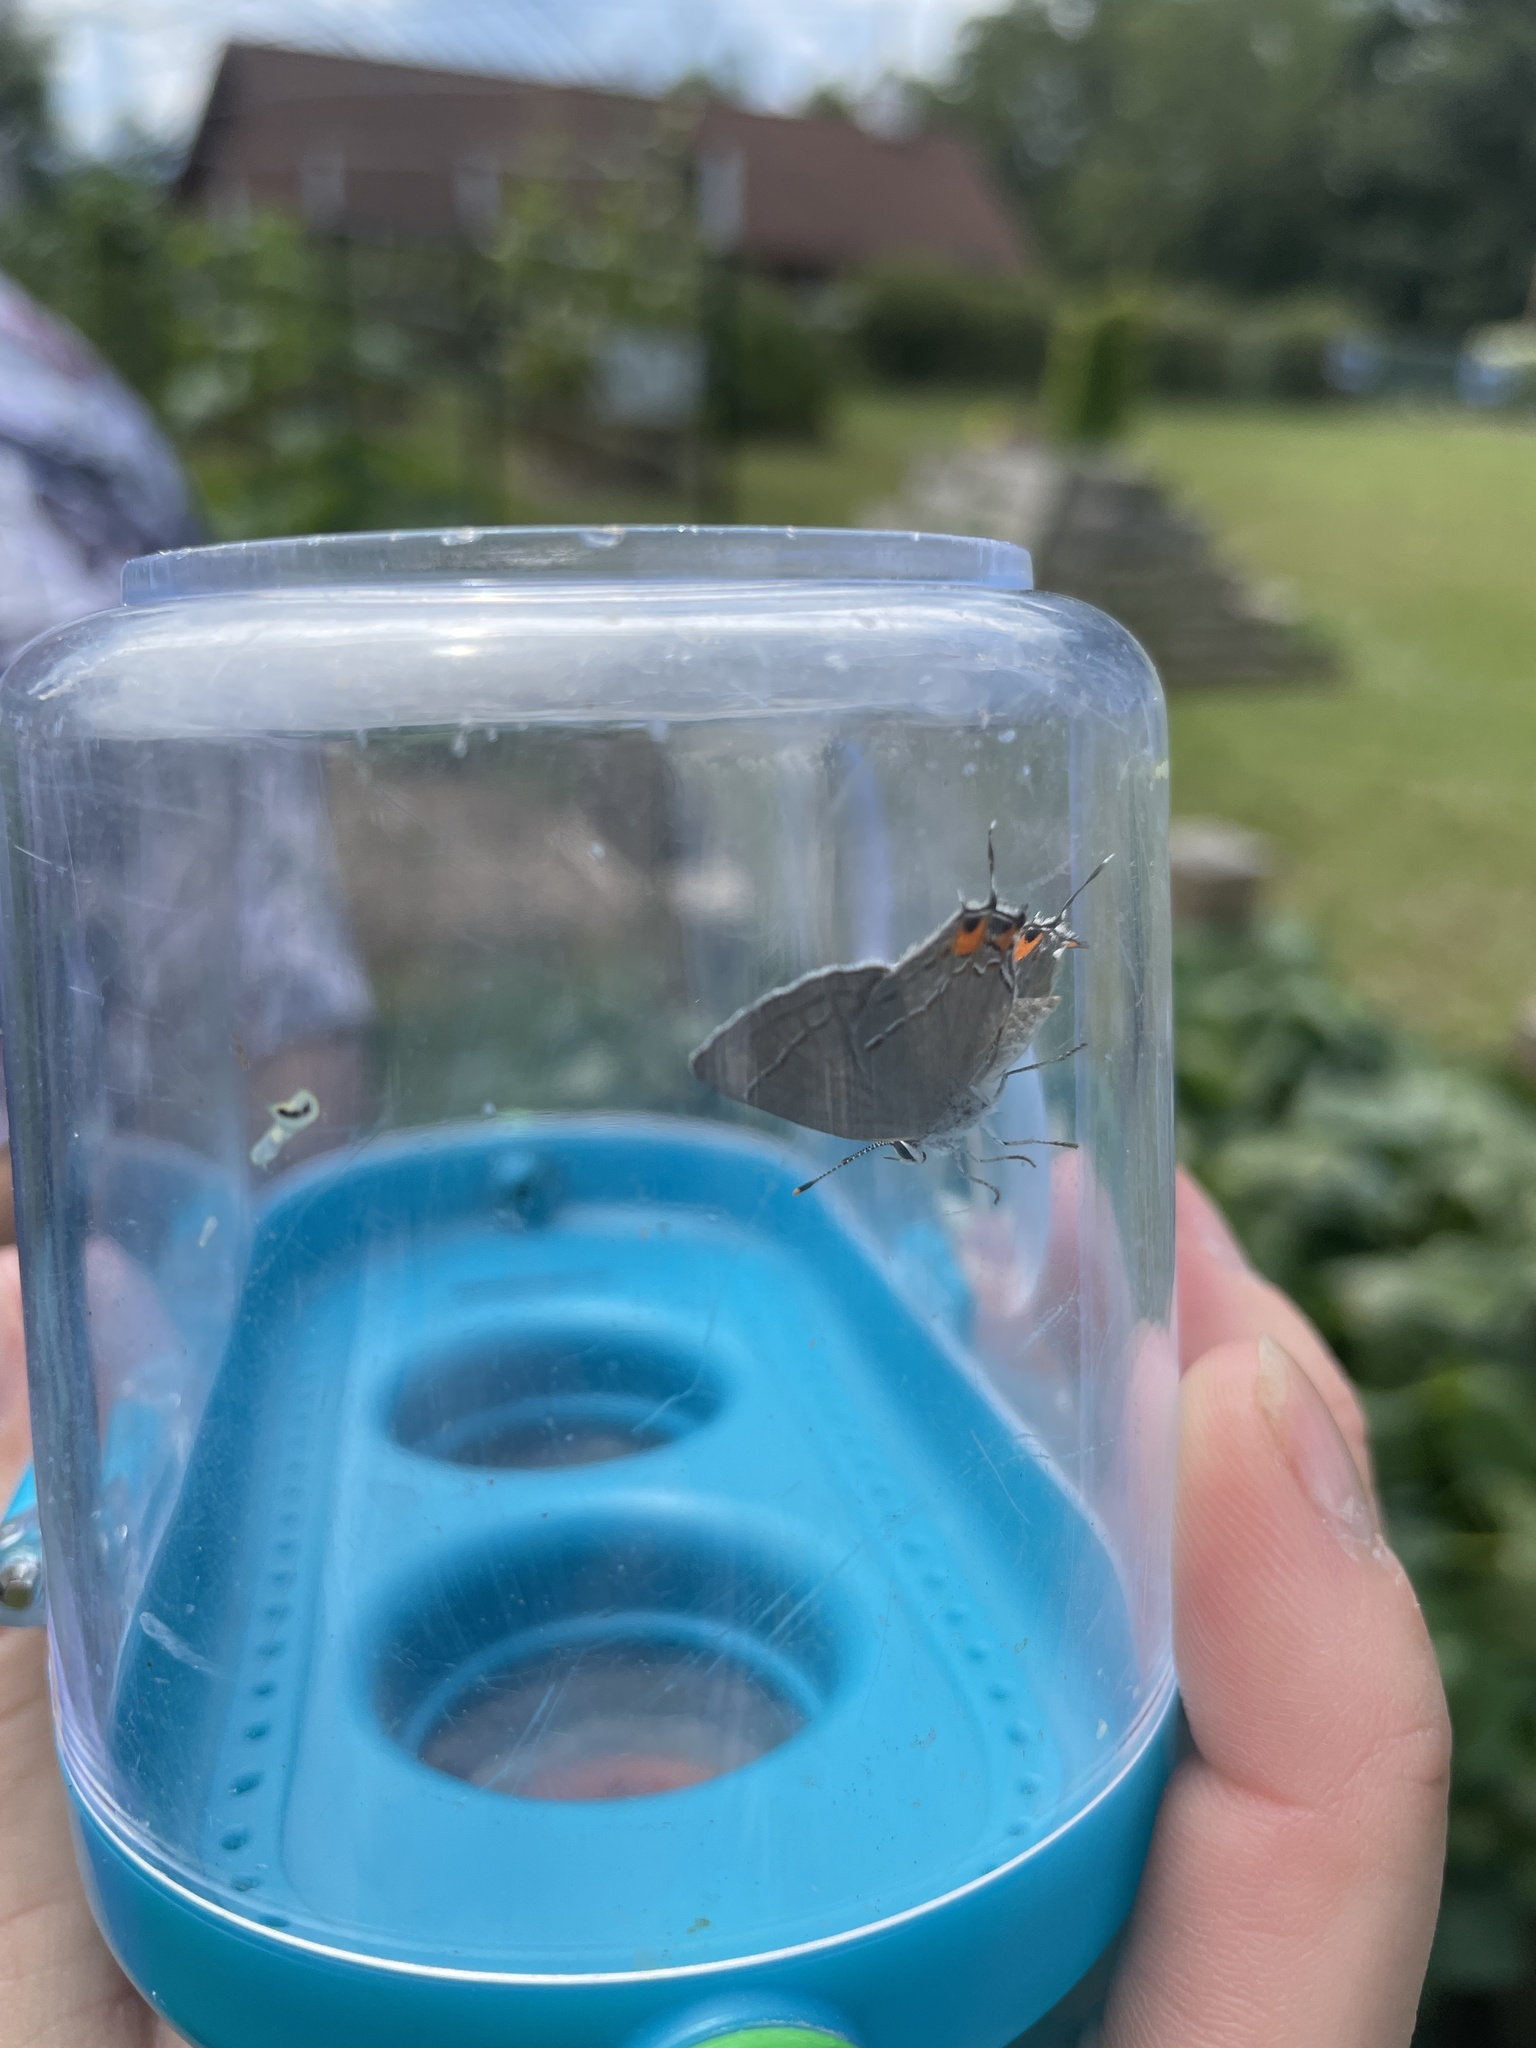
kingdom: Animalia
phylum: Arthropoda
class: Insecta
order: Lepidoptera
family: Lycaenidae
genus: Strymon
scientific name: Strymon melinus
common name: Gray hairstreak
